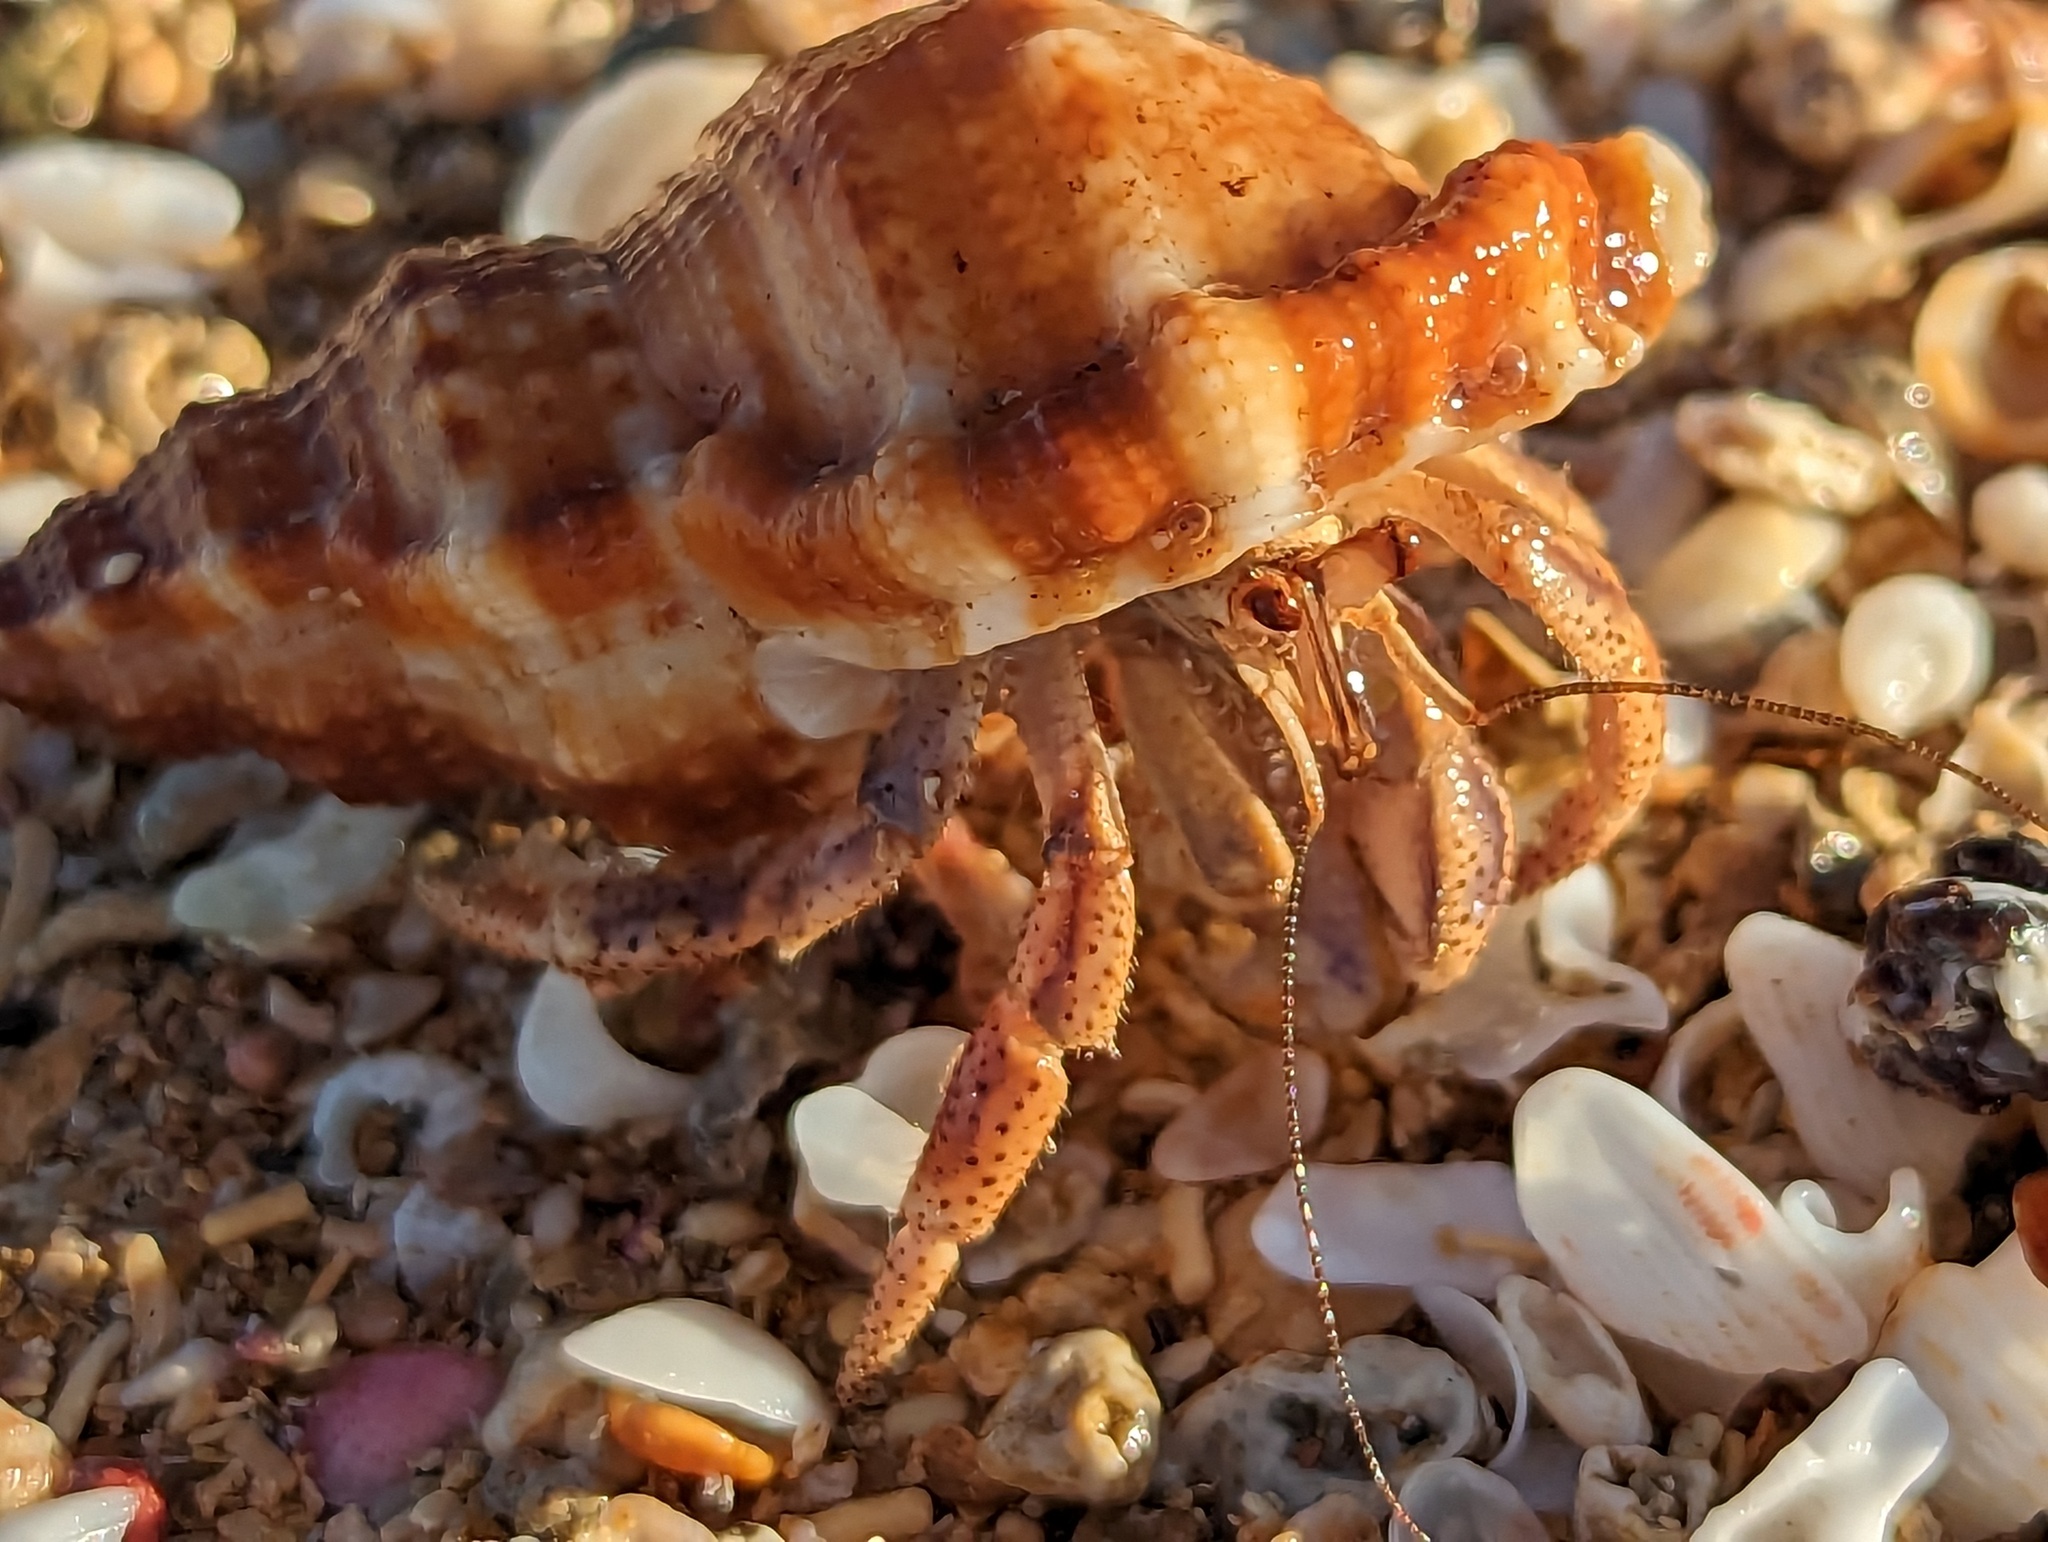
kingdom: Animalia
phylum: Arthropoda
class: Malacostraca
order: Decapoda
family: Coenobitidae
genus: Coenobita
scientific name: Coenobita clypeatus
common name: Caribbean hermit crab
